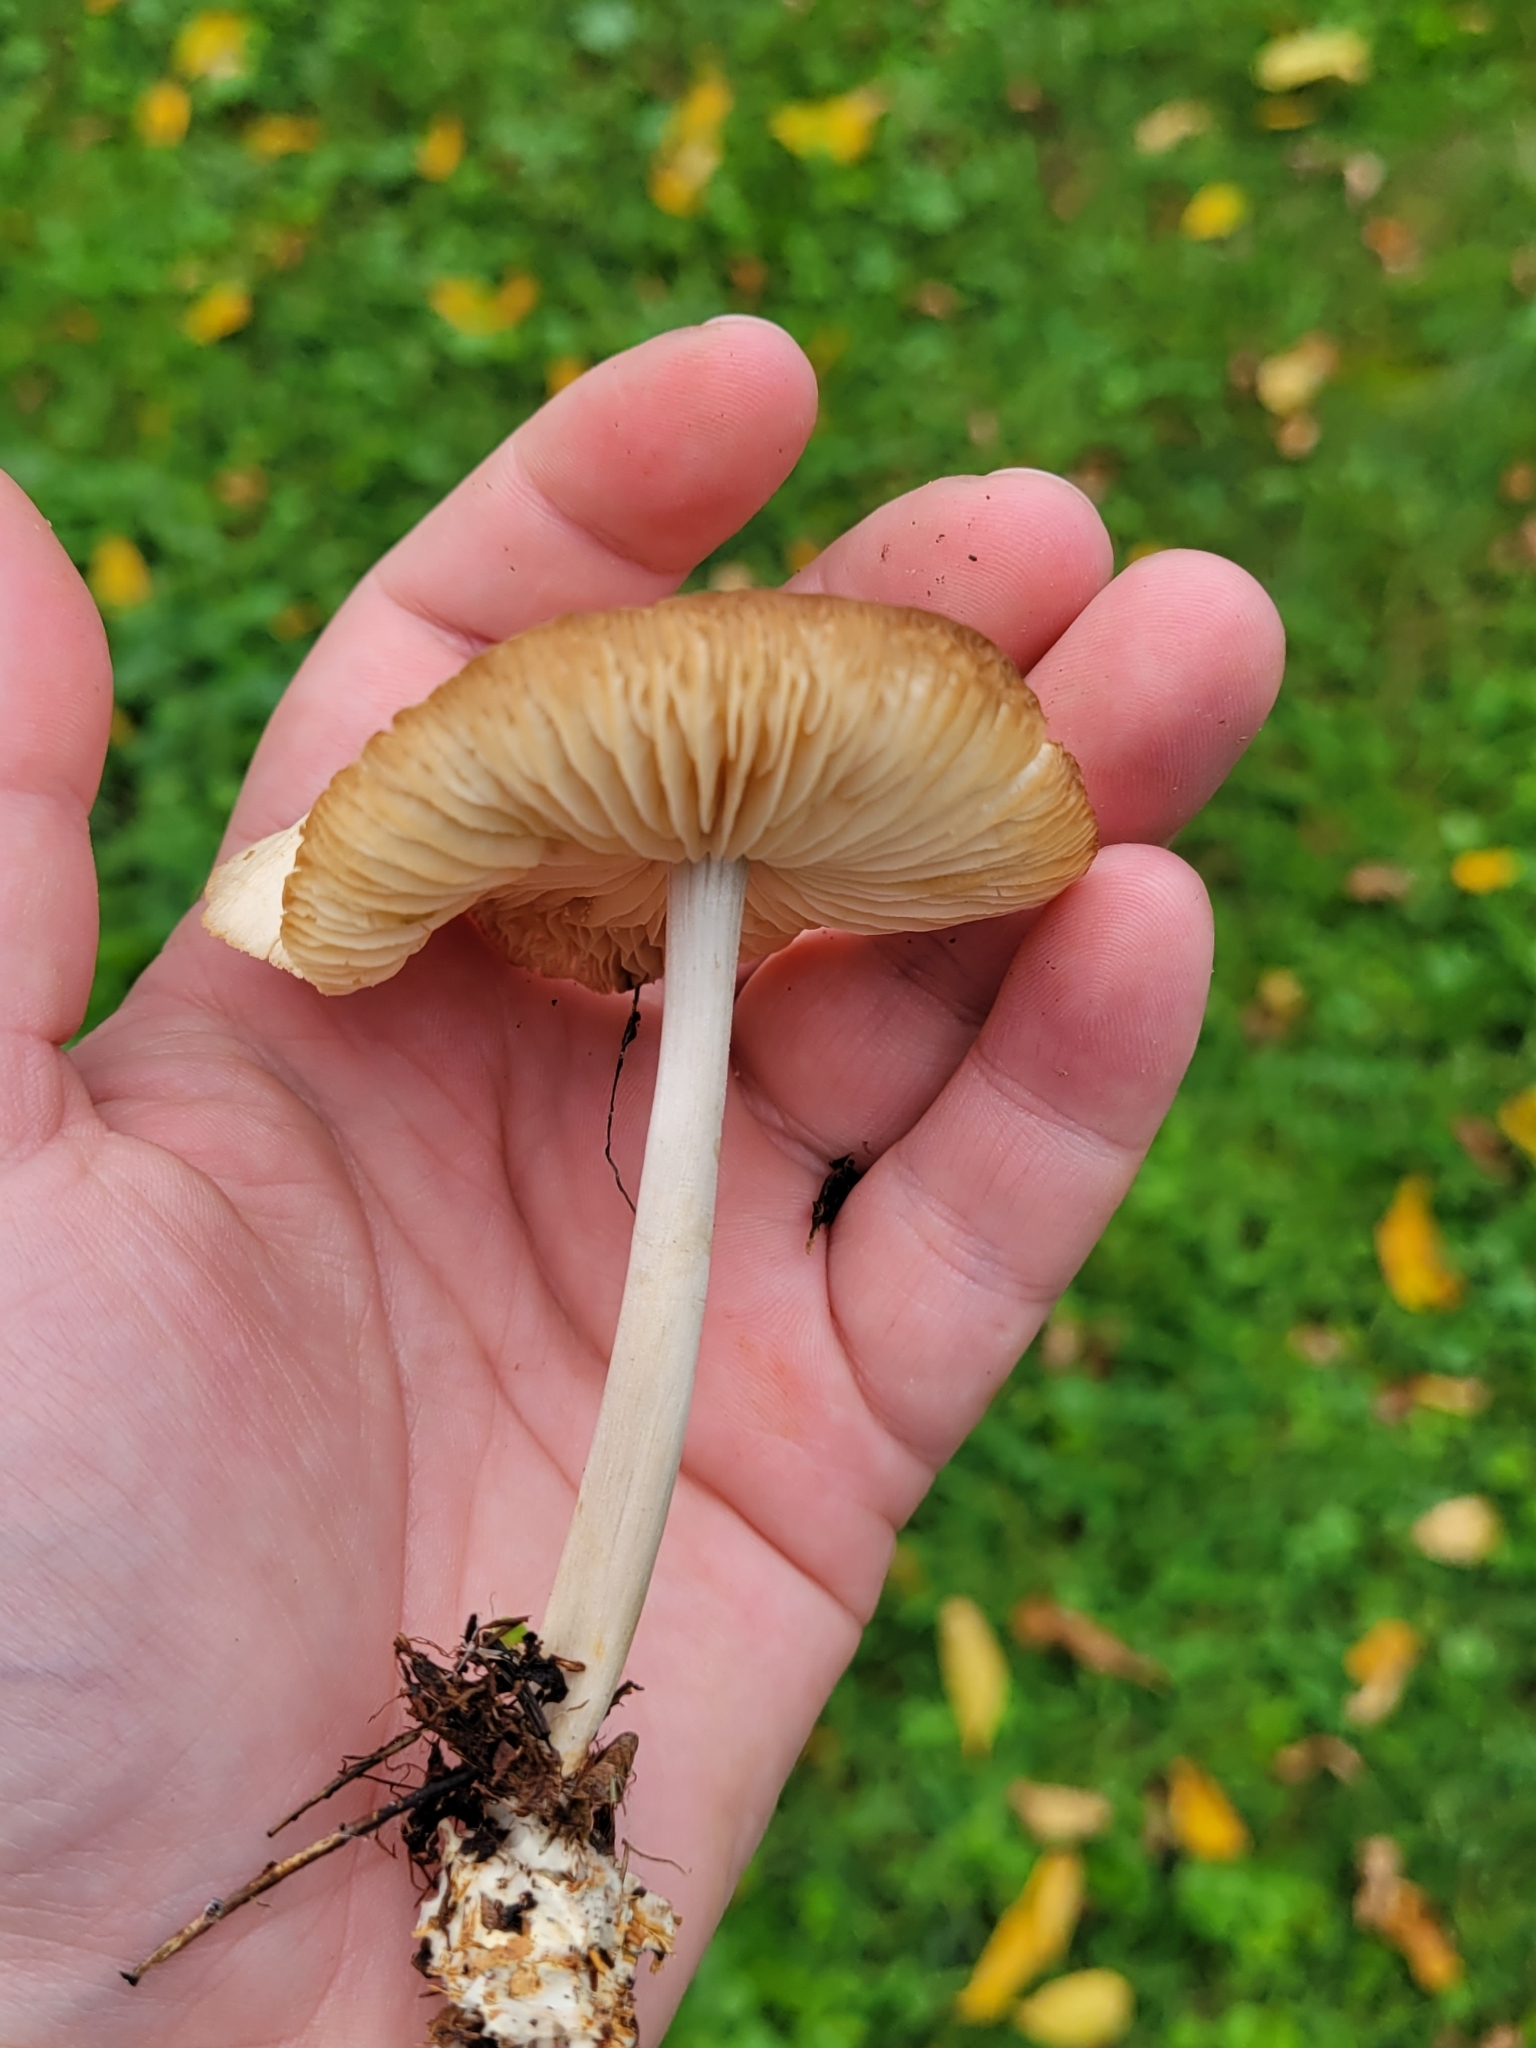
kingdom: Fungi
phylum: Basidiomycota
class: Agaricomycetes
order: Agaricales
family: Marasmiaceae
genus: Marasmius
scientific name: Marasmius oreades
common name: Fairy ring champignon
